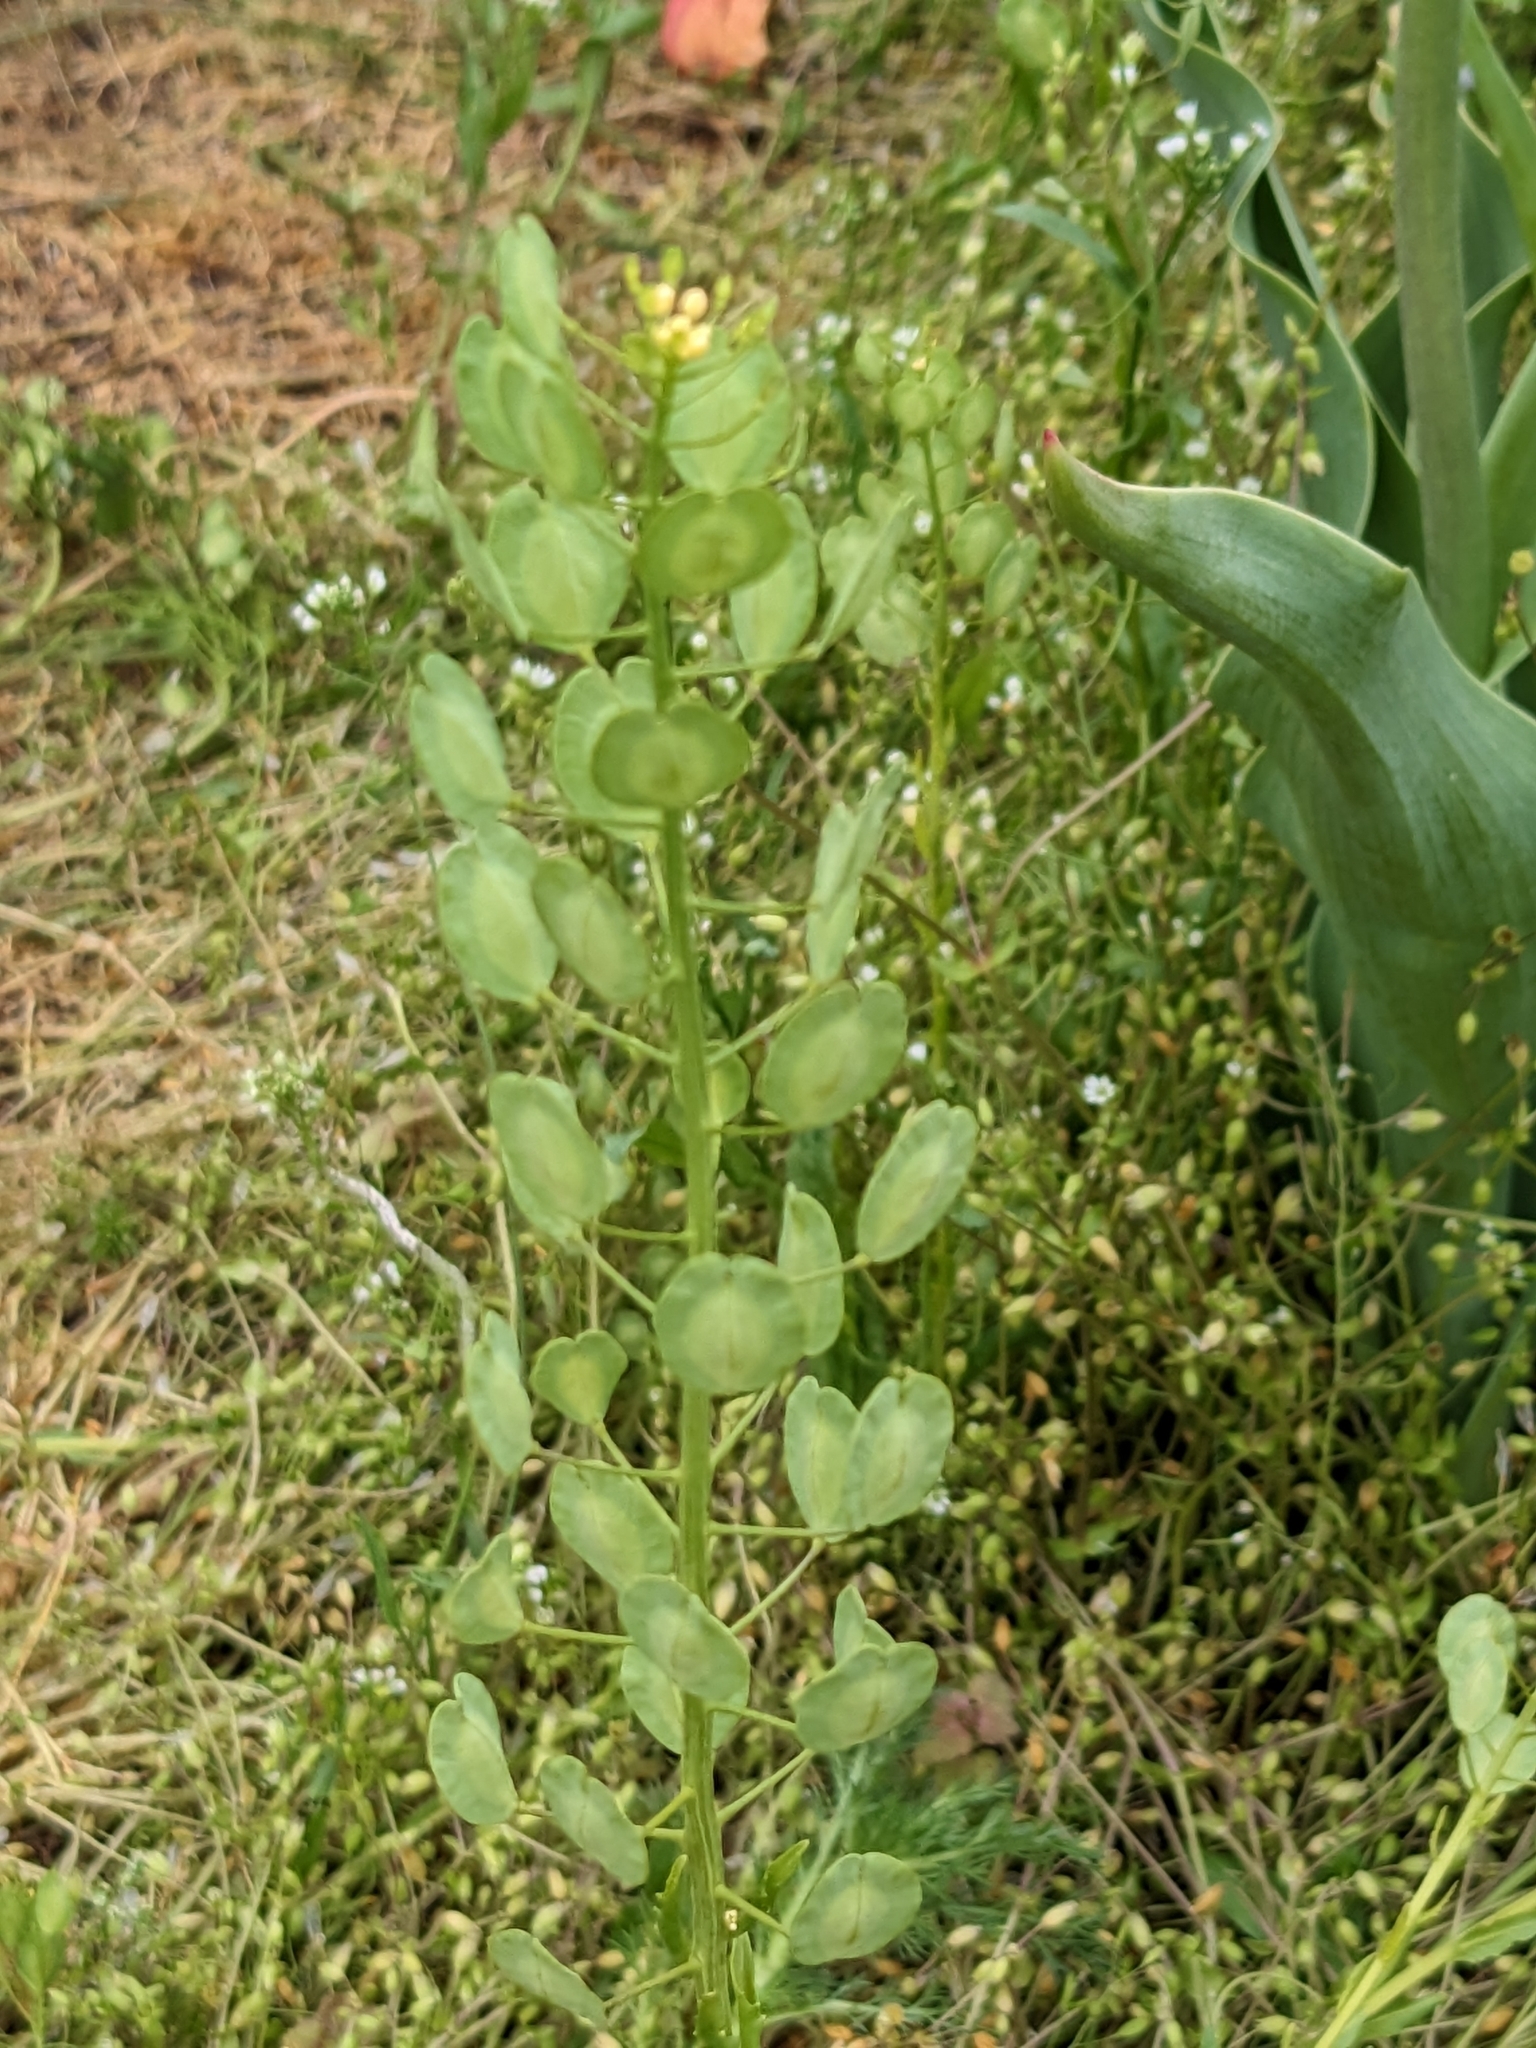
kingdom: Plantae
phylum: Tracheophyta
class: Magnoliopsida
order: Brassicales
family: Brassicaceae
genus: Thlaspi
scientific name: Thlaspi arvense
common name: Field pennycress
